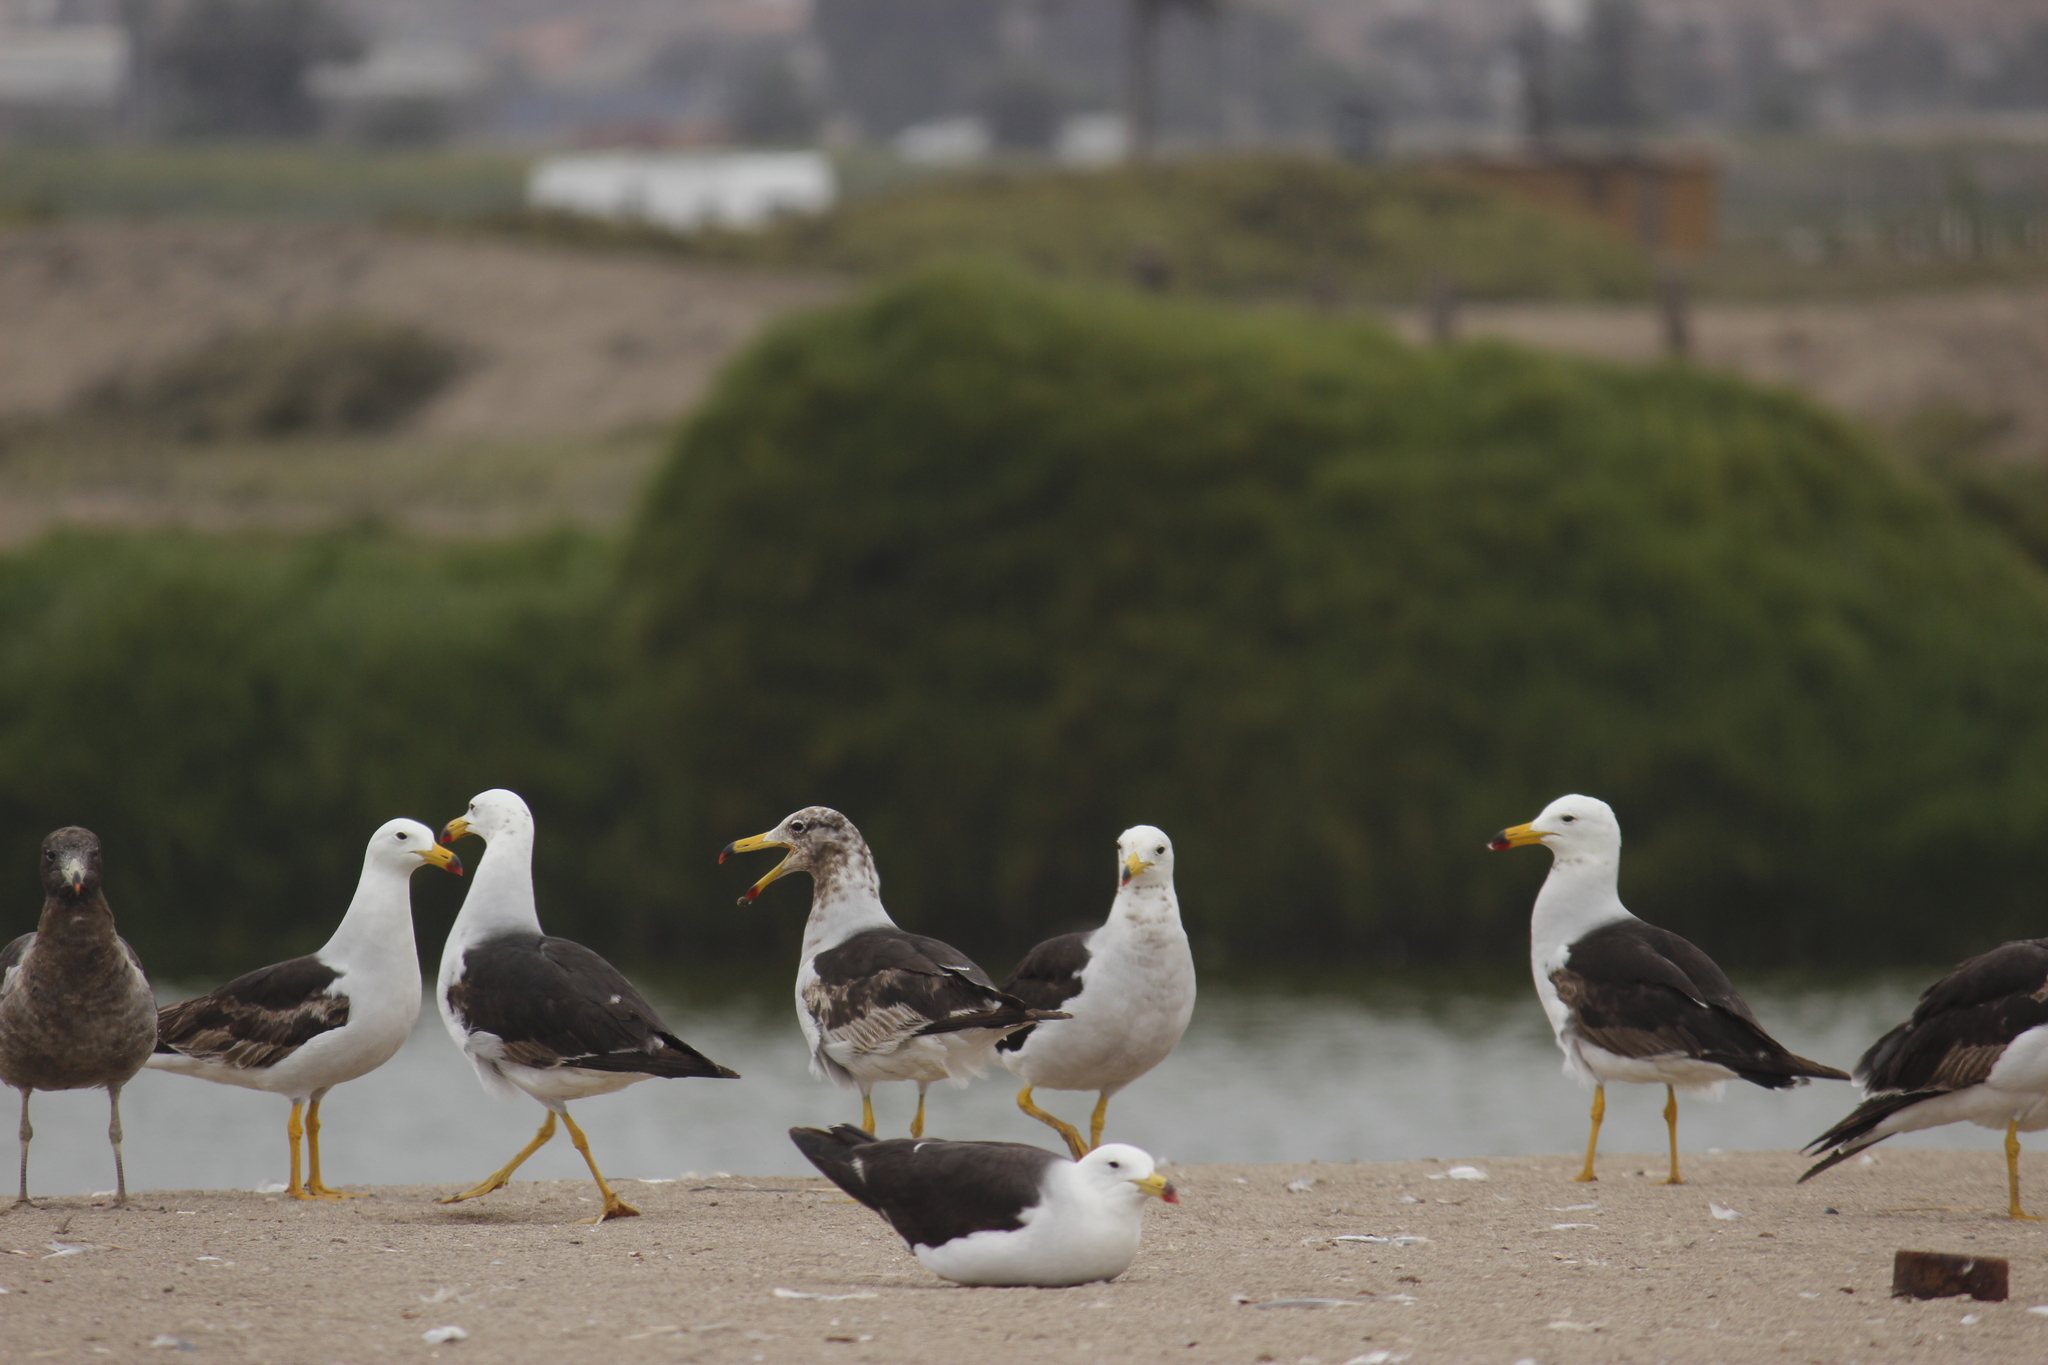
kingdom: Animalia
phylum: Chordata
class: Aves
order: Charadriiformes
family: Laridae
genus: Larus
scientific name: Larus belcheri
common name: Belcher's gull
